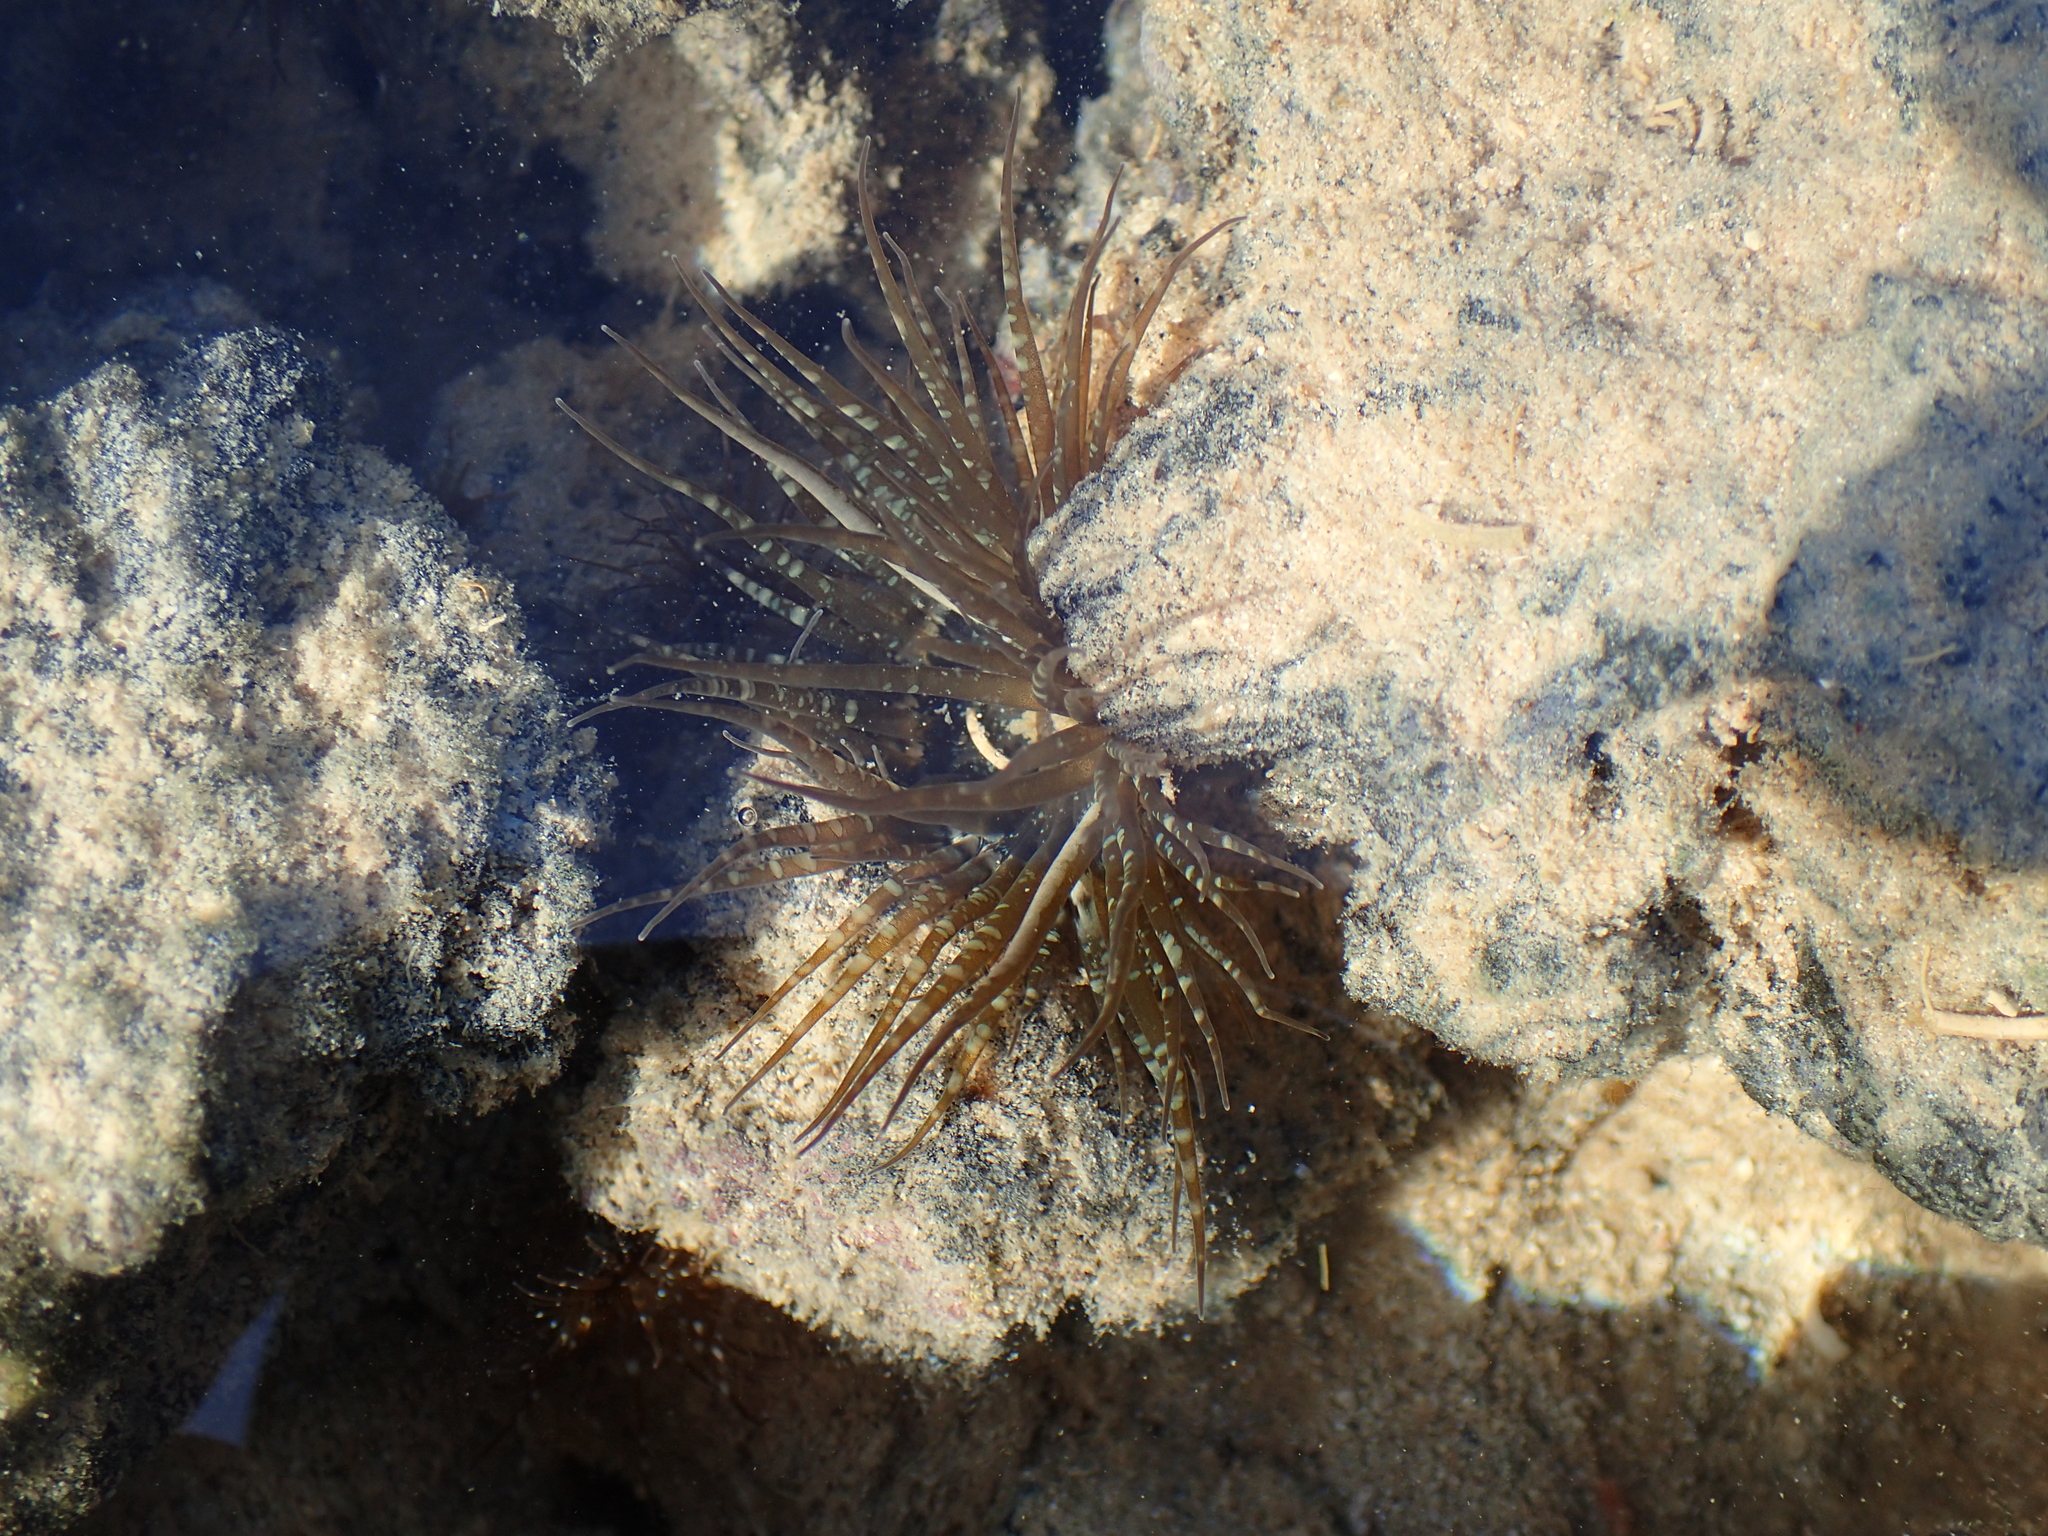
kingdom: Animalia
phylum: Cnidaria
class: Anthozoa
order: Actiniaria
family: Aiptasiidae
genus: Exaiptasia
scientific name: Exaiptasia diaphana
